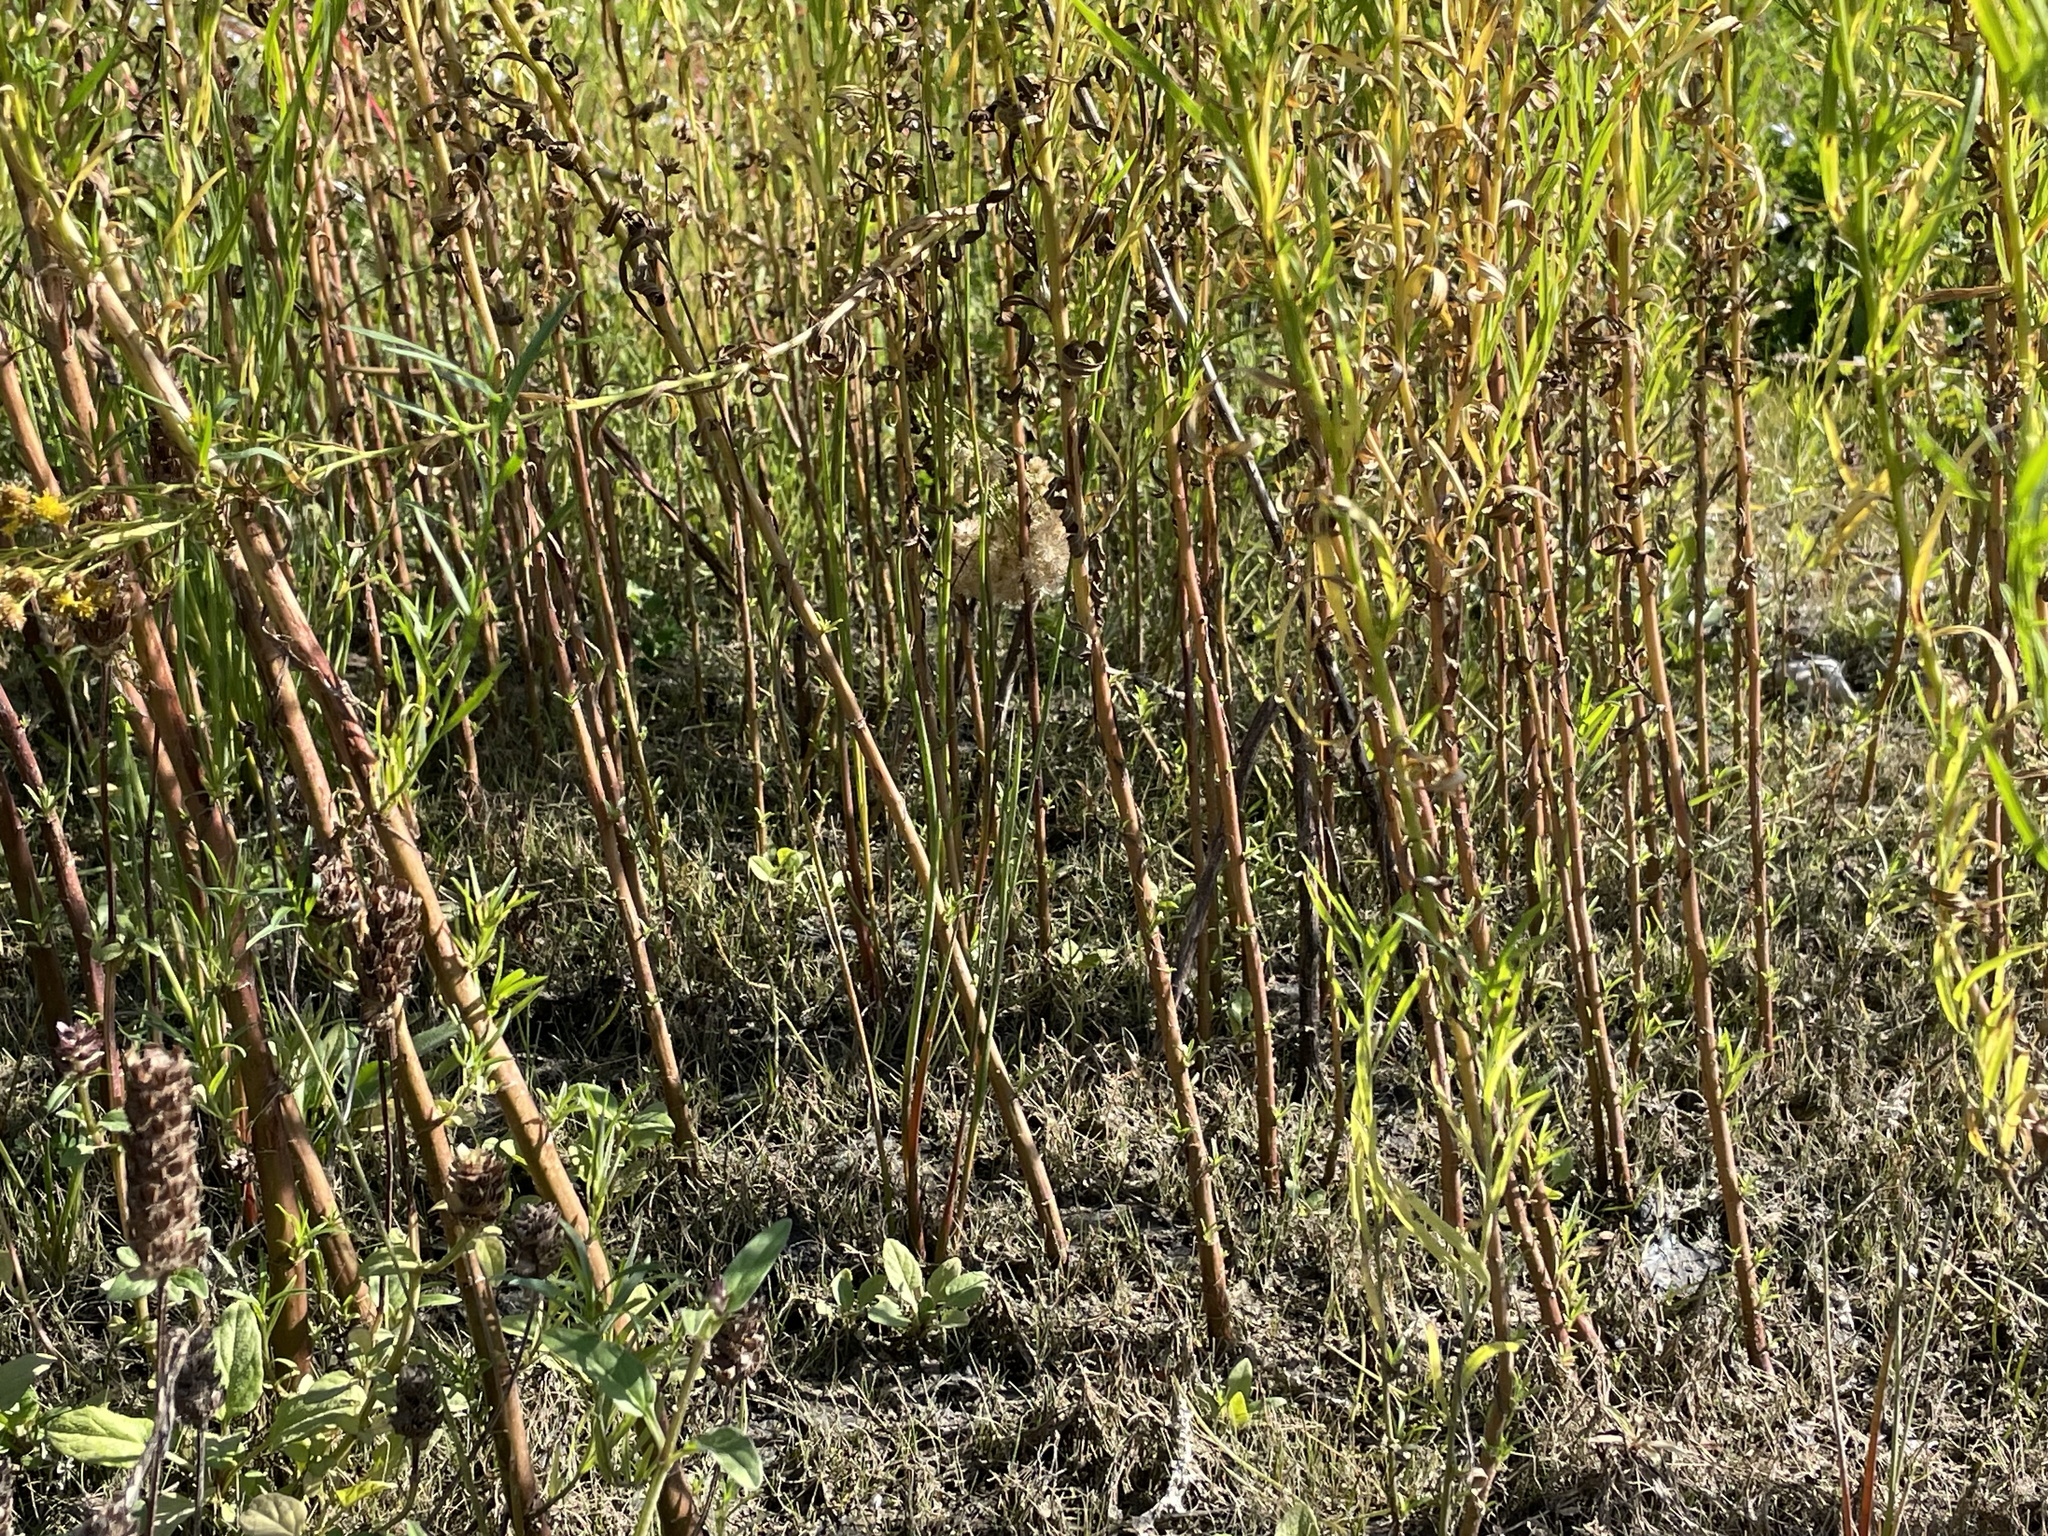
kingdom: Plantae
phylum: Tracheophyta
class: Magnoliopsida
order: Asterales
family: Asteraceae
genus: Euthamia
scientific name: Euthamia occidentalis
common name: Western goldentop
